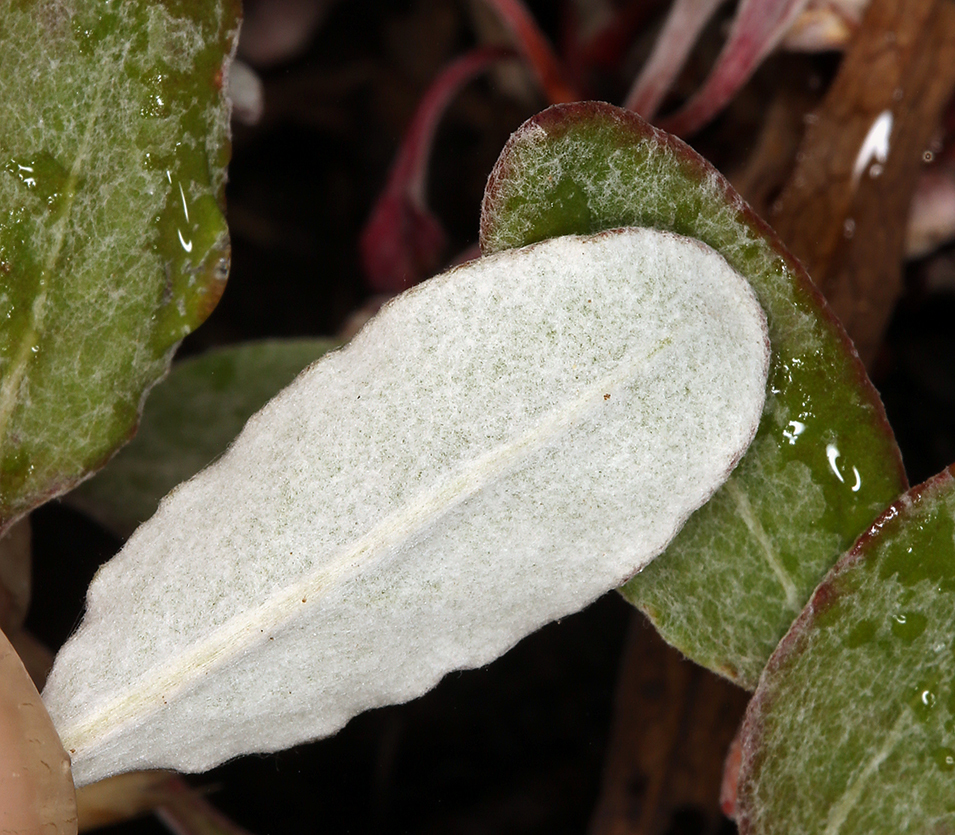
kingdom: Plantae
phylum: Tracheophyta
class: Magnoliopsida
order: Caryophyllales
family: Polygonaceae
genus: Eriogonum
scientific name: Eriogonum nudum
